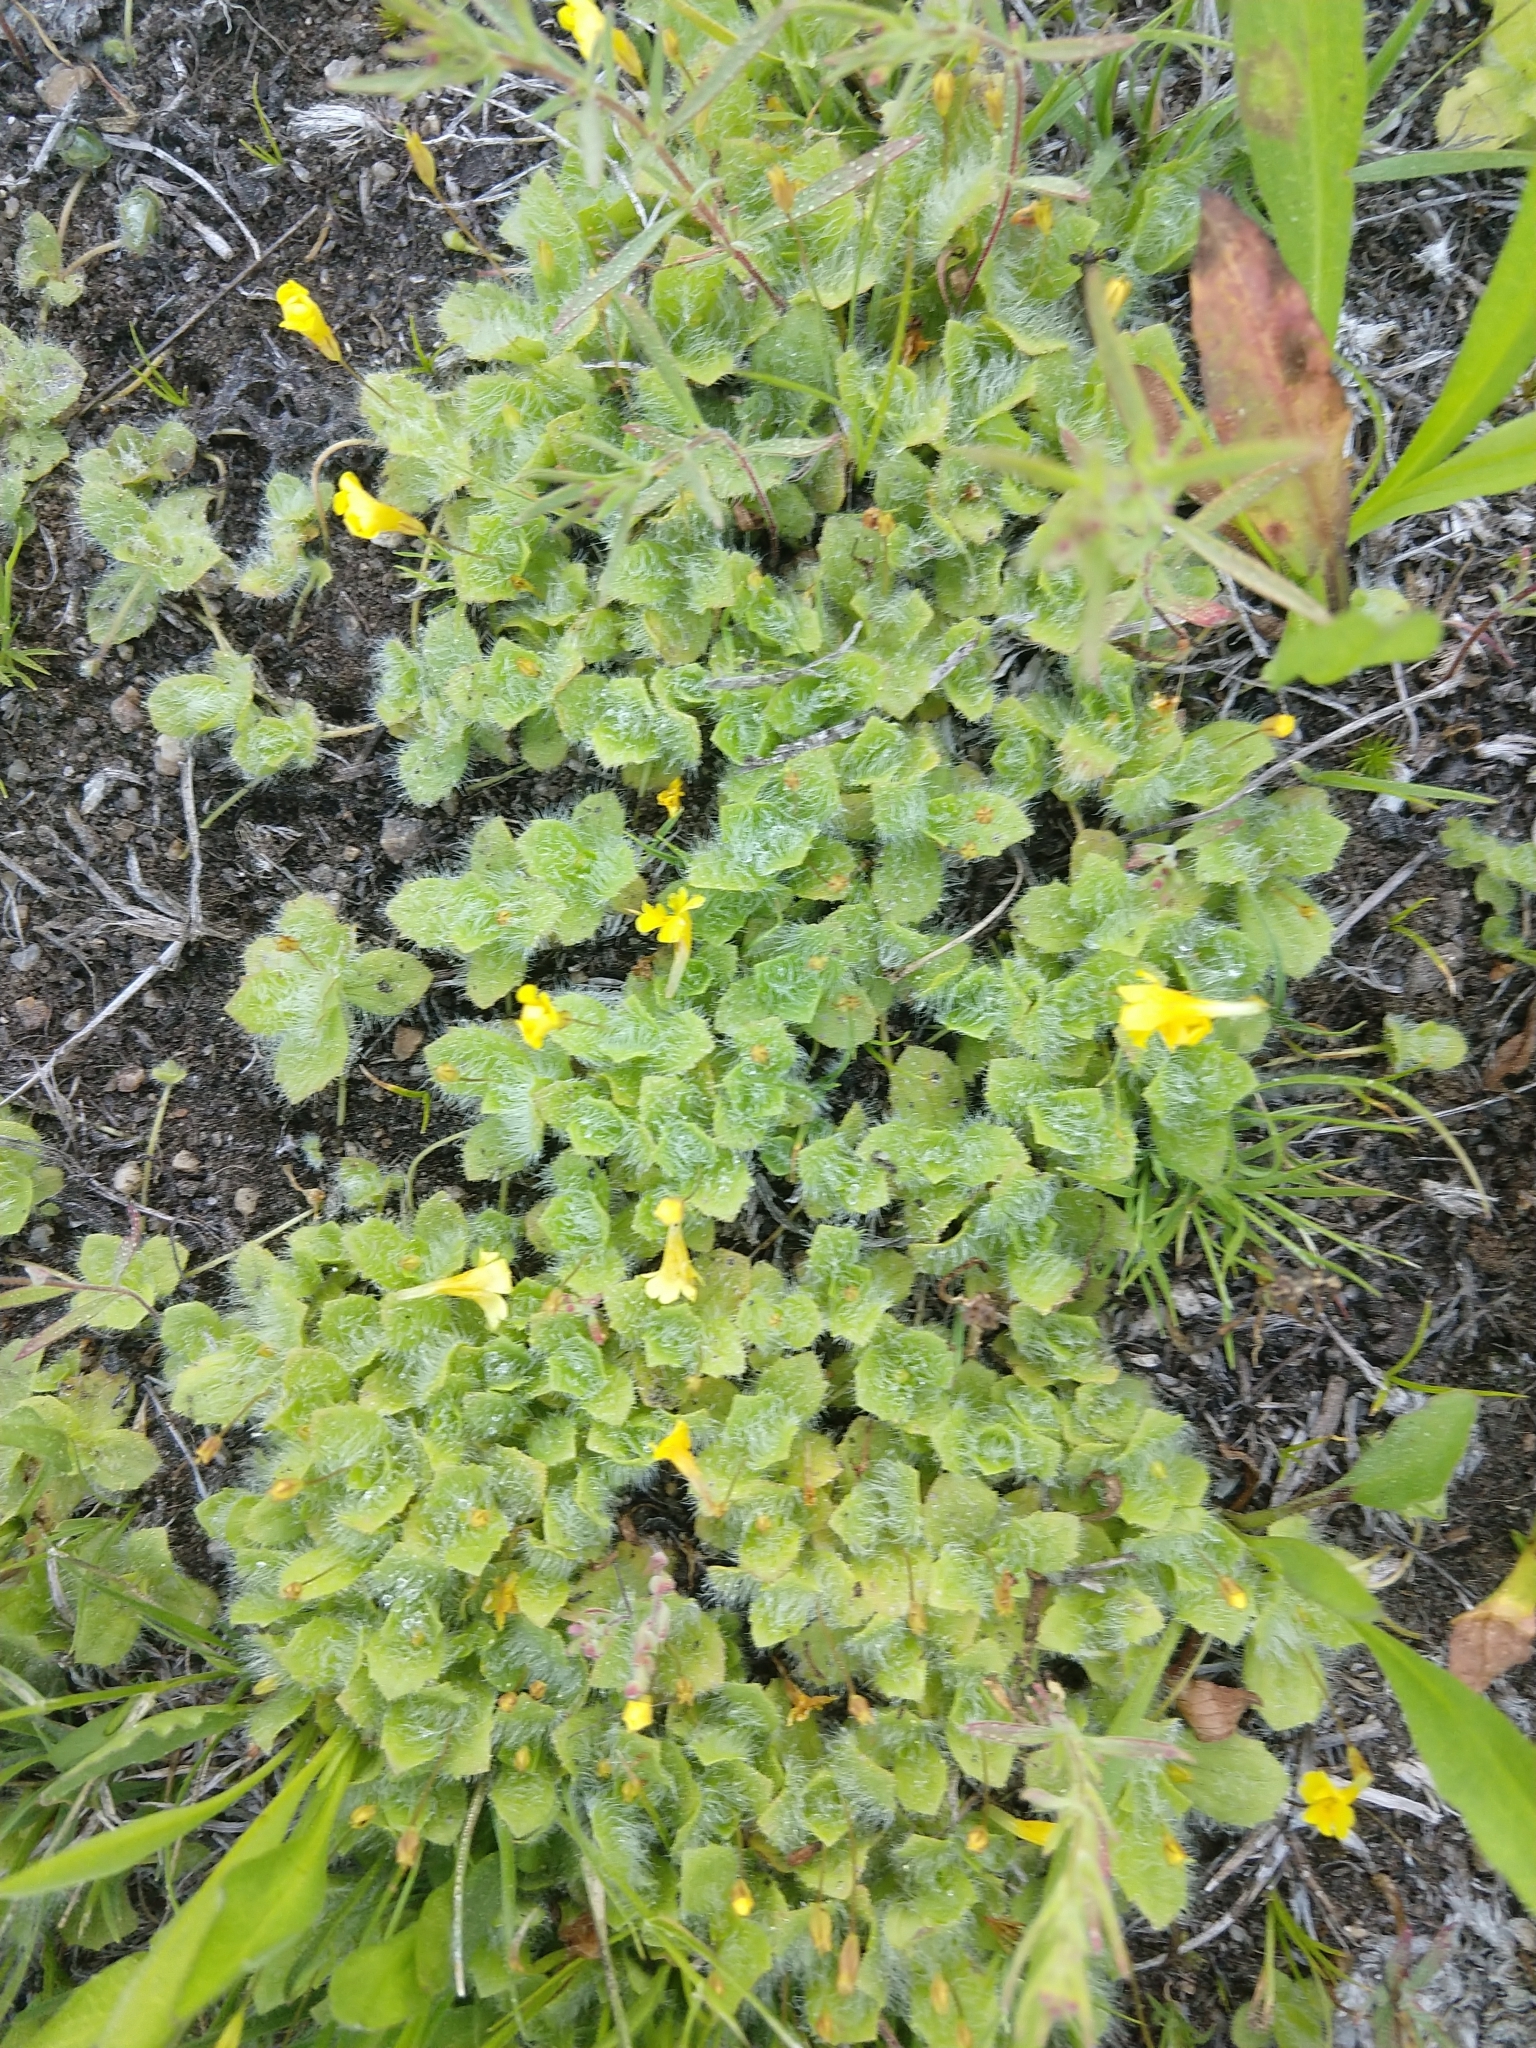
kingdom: Plantae
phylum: Tracheophyta
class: Magnoliopsida
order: Lamiales
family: Phrymaceae
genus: Erythranthe
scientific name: Erythranthe primuloides
